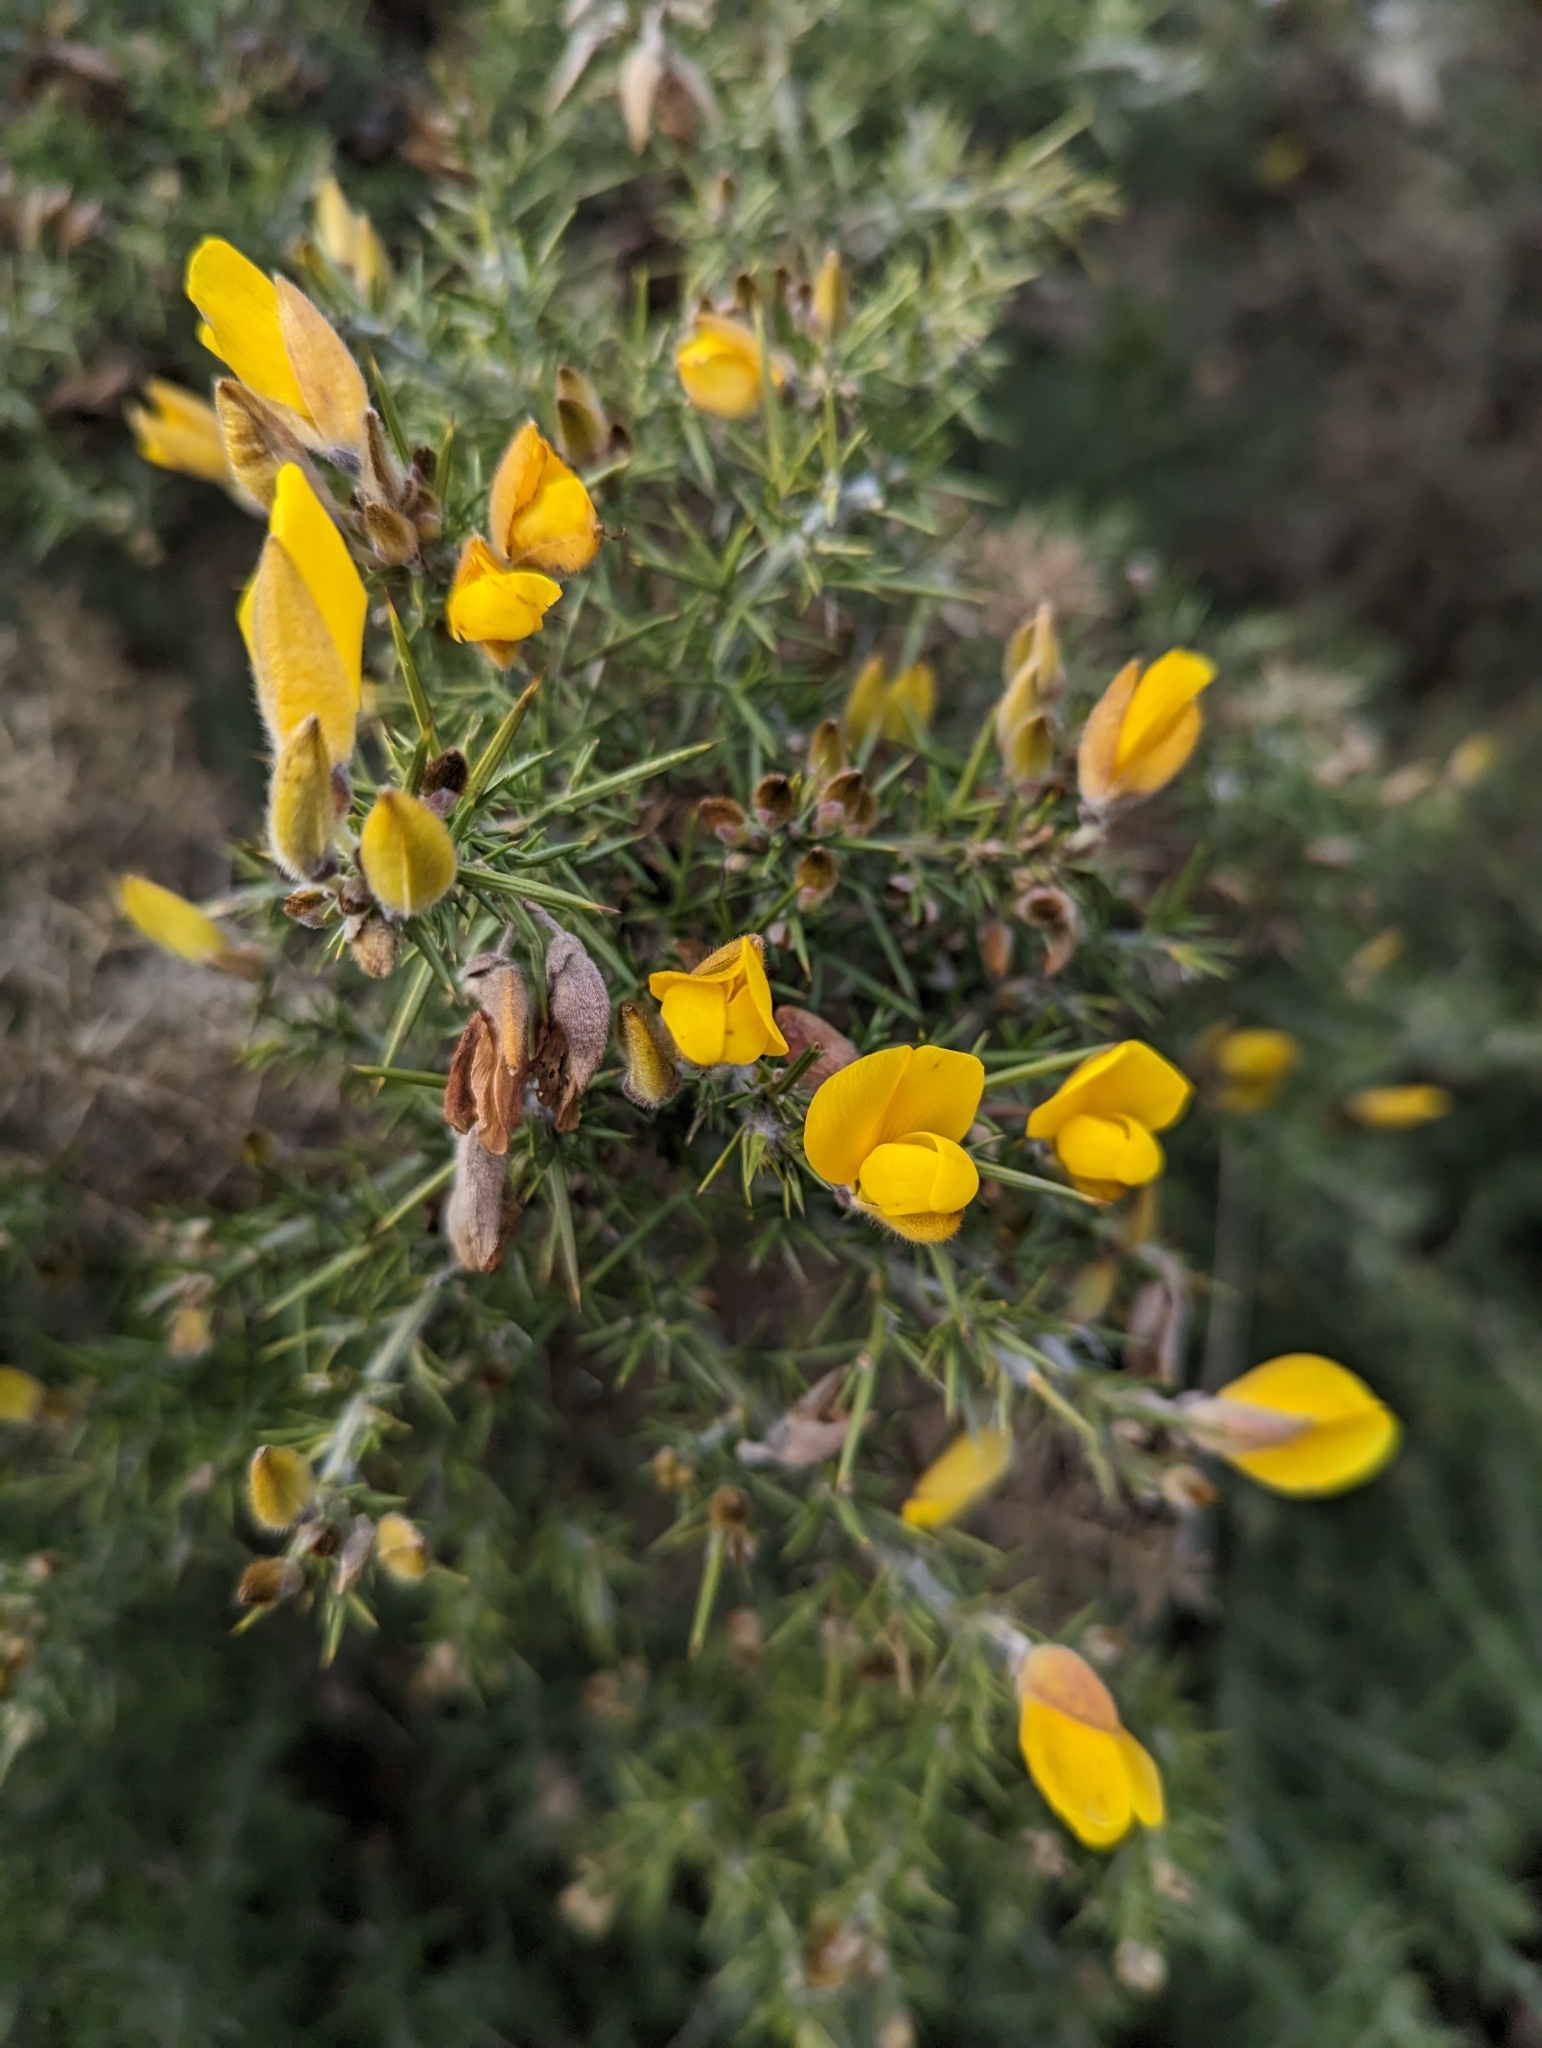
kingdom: Plantae
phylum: Tracheophyta
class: Magnoliopsida
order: Fabales
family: Fabaceae
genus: Ulex
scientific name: Ulex europaeus
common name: Common gorse
